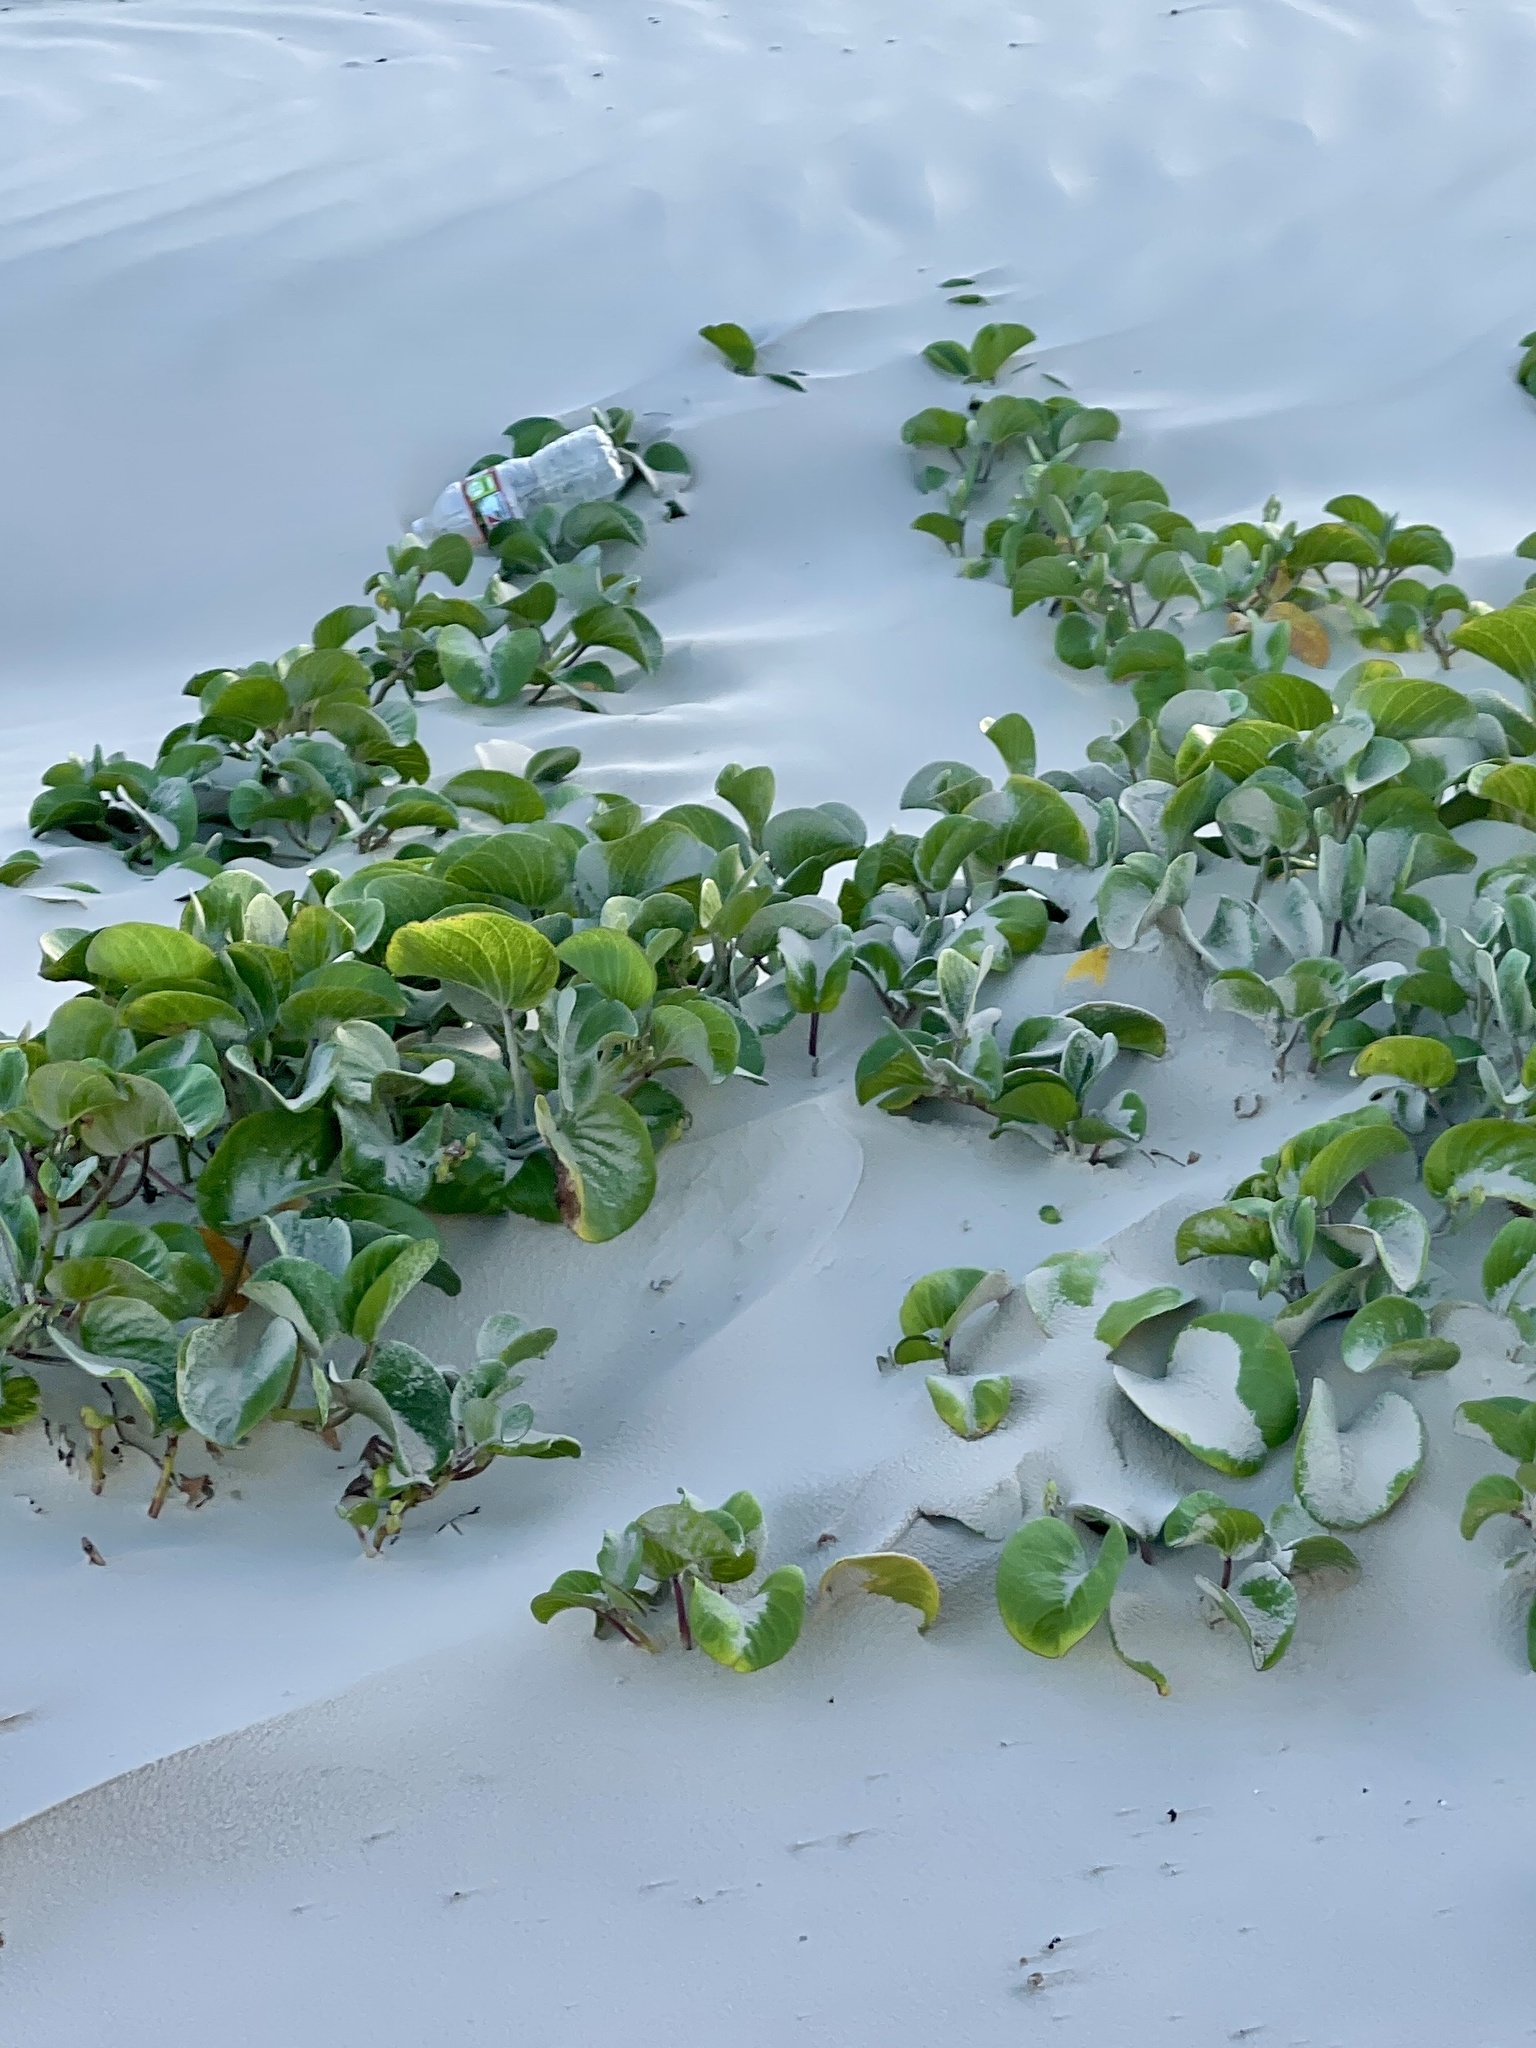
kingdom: Plantae
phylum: Tracheophyta
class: Magnoliopsida
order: Solanales
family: Convolvulaceae
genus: Ipomoea
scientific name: Ipomoea pes-caprae
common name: Beach morning glory
